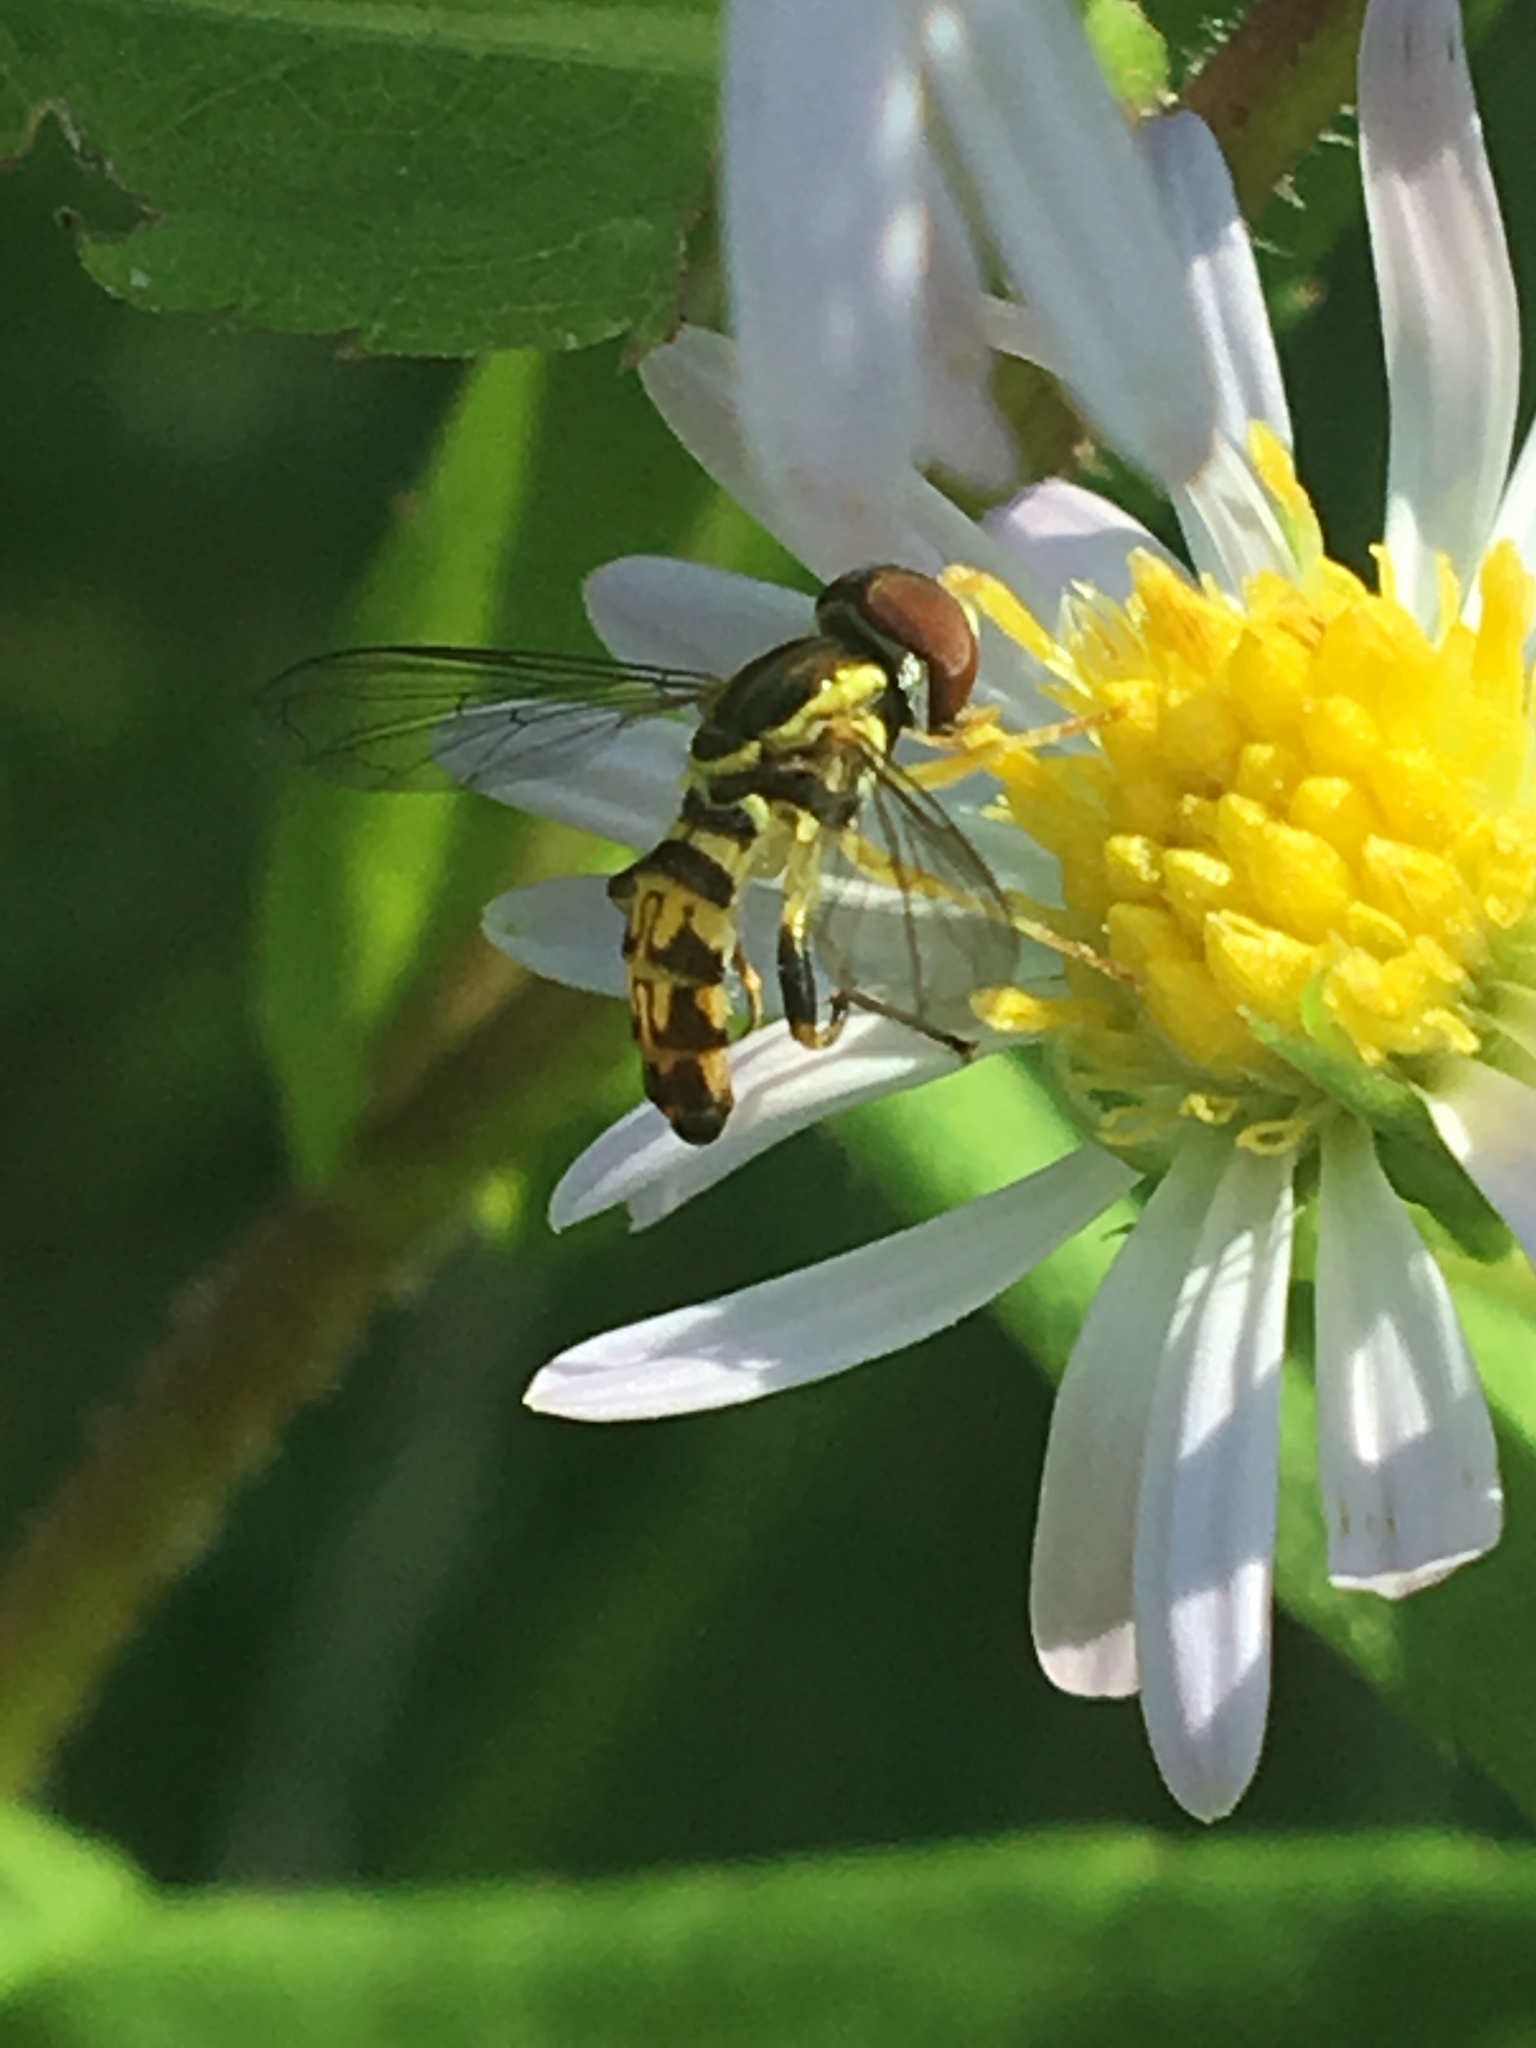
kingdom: Animalia
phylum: Arthropoda
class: Insecta
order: Diptera
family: Syrphidae
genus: Toxomerus
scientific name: Toxomerus geminatus
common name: Eastern calligrapher
